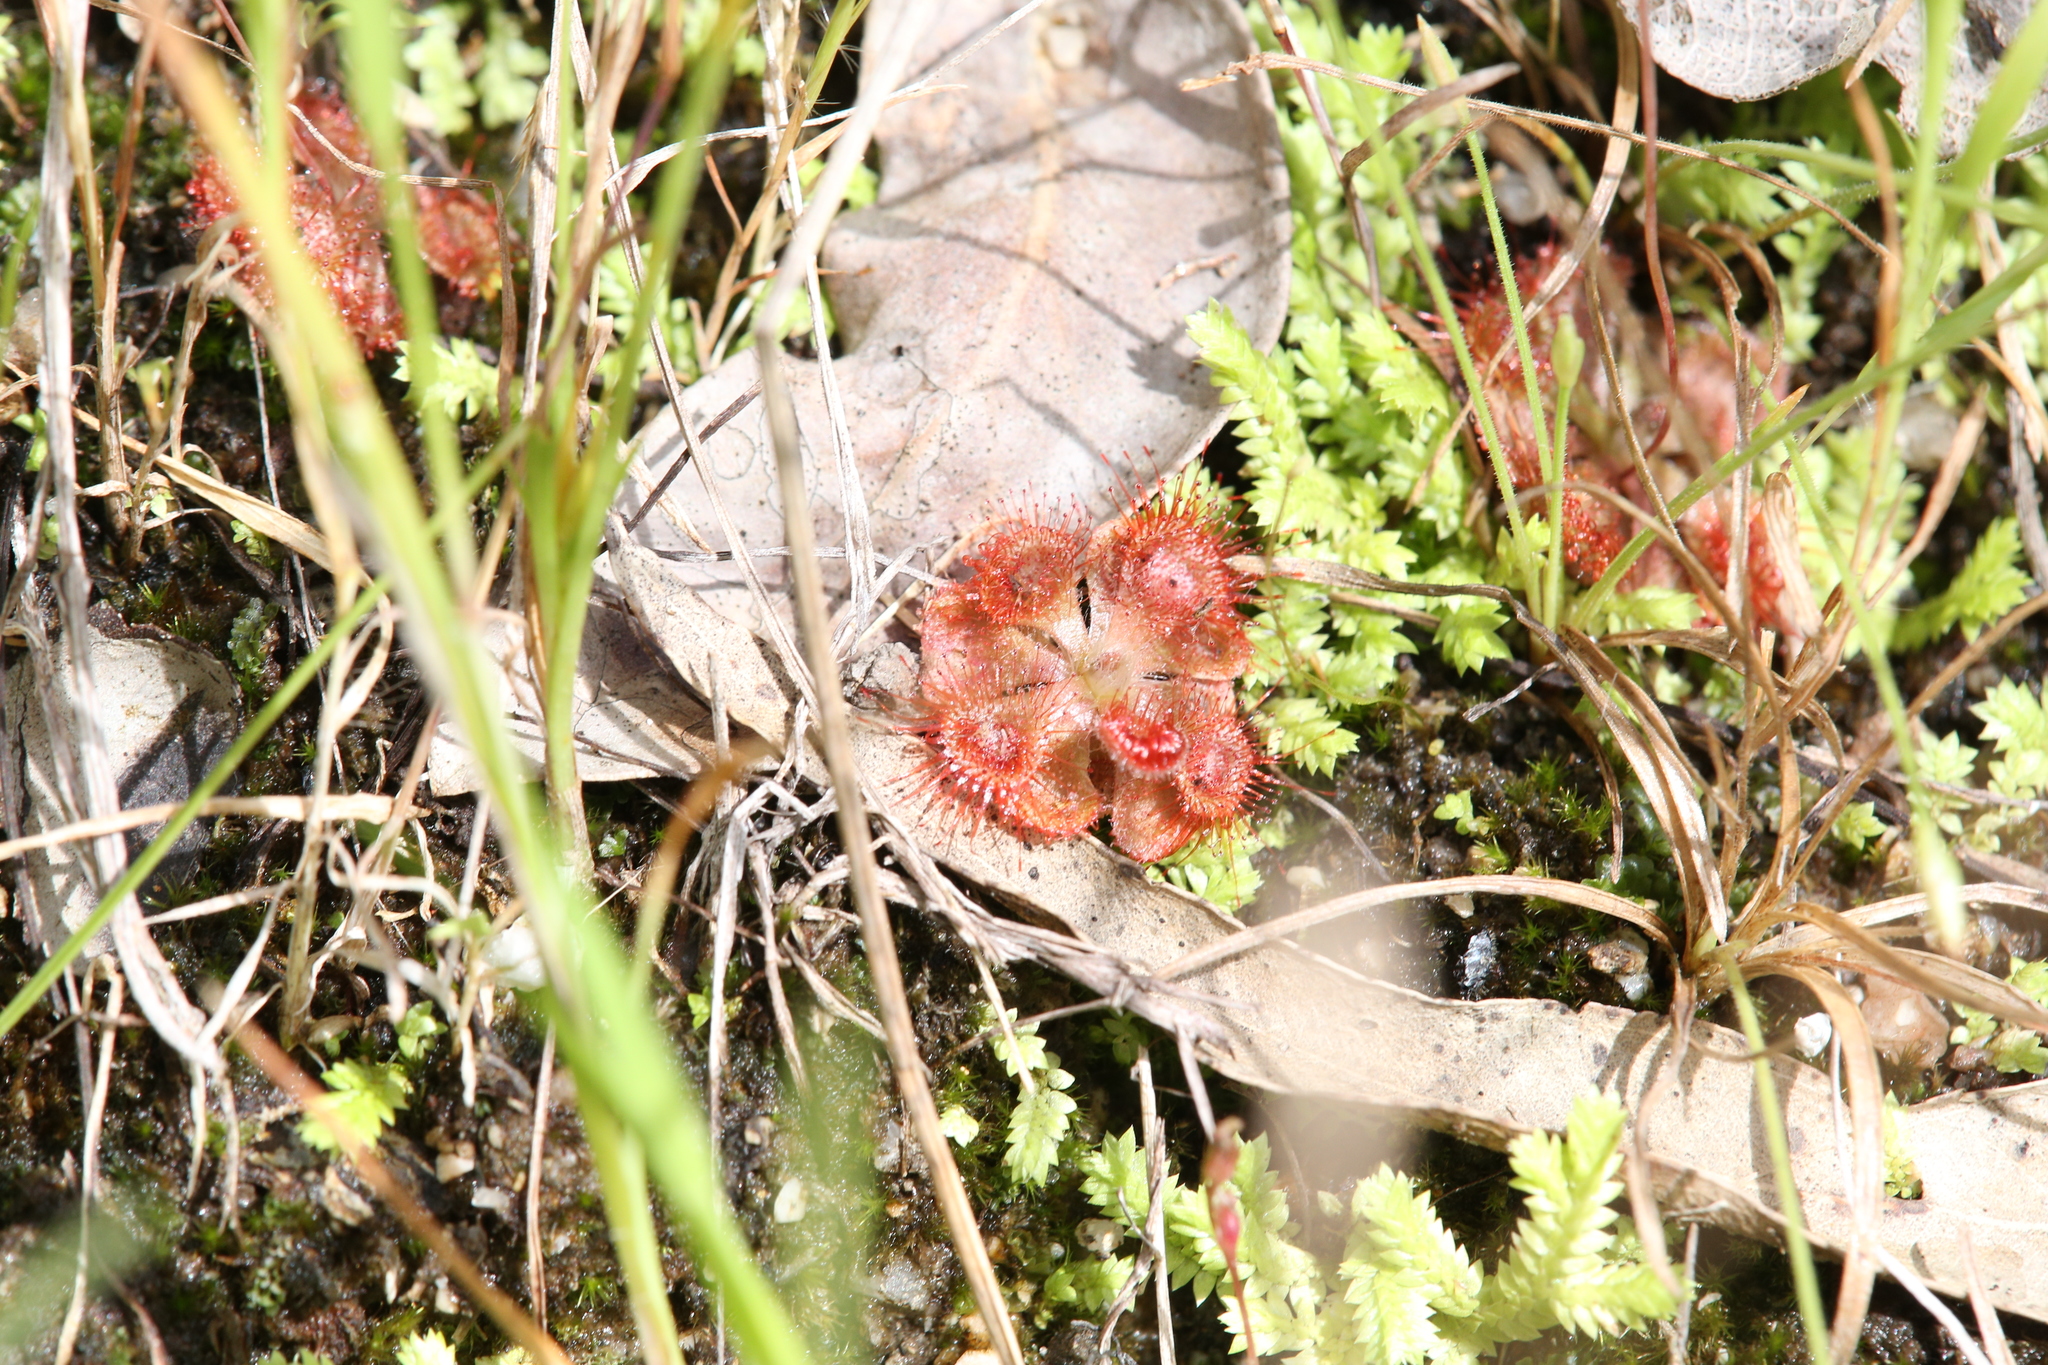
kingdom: Plantae
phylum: Tracheophyta
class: Magnoliopsida
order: Caryophyllales
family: Droseraceae
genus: Drosera
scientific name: Drosera spatulata
